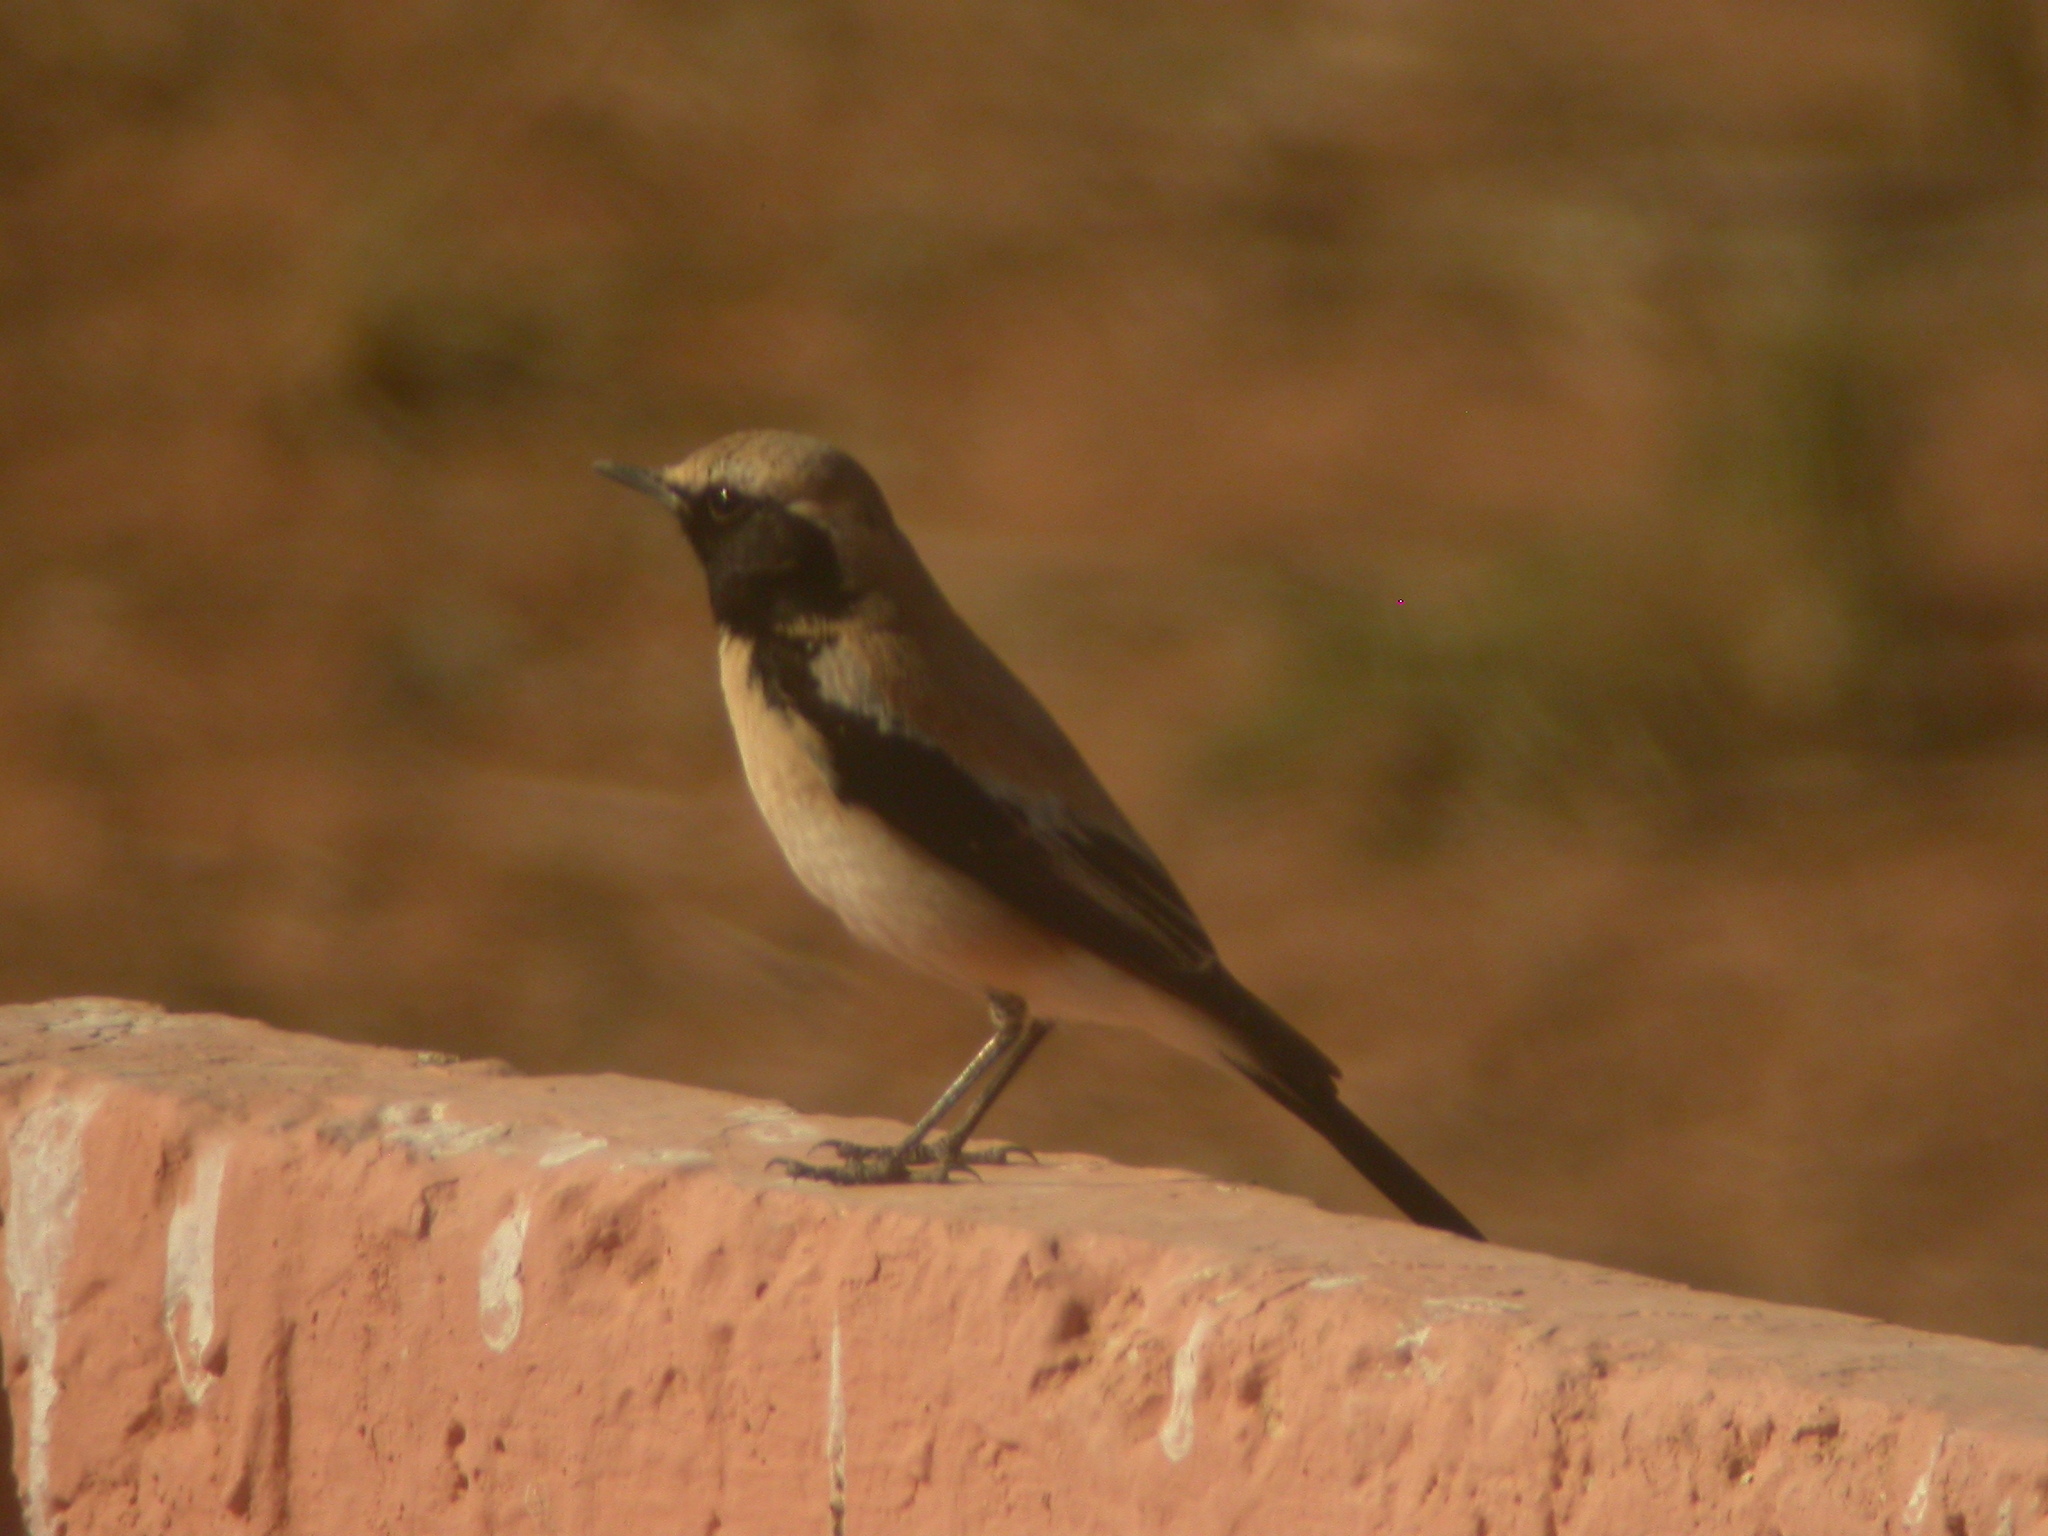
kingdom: Animalia
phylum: Chordata
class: Aves
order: Passeriformes
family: Muscicapidae
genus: Oenanthe
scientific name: Oenanthe deserti
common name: Desert wheatear
